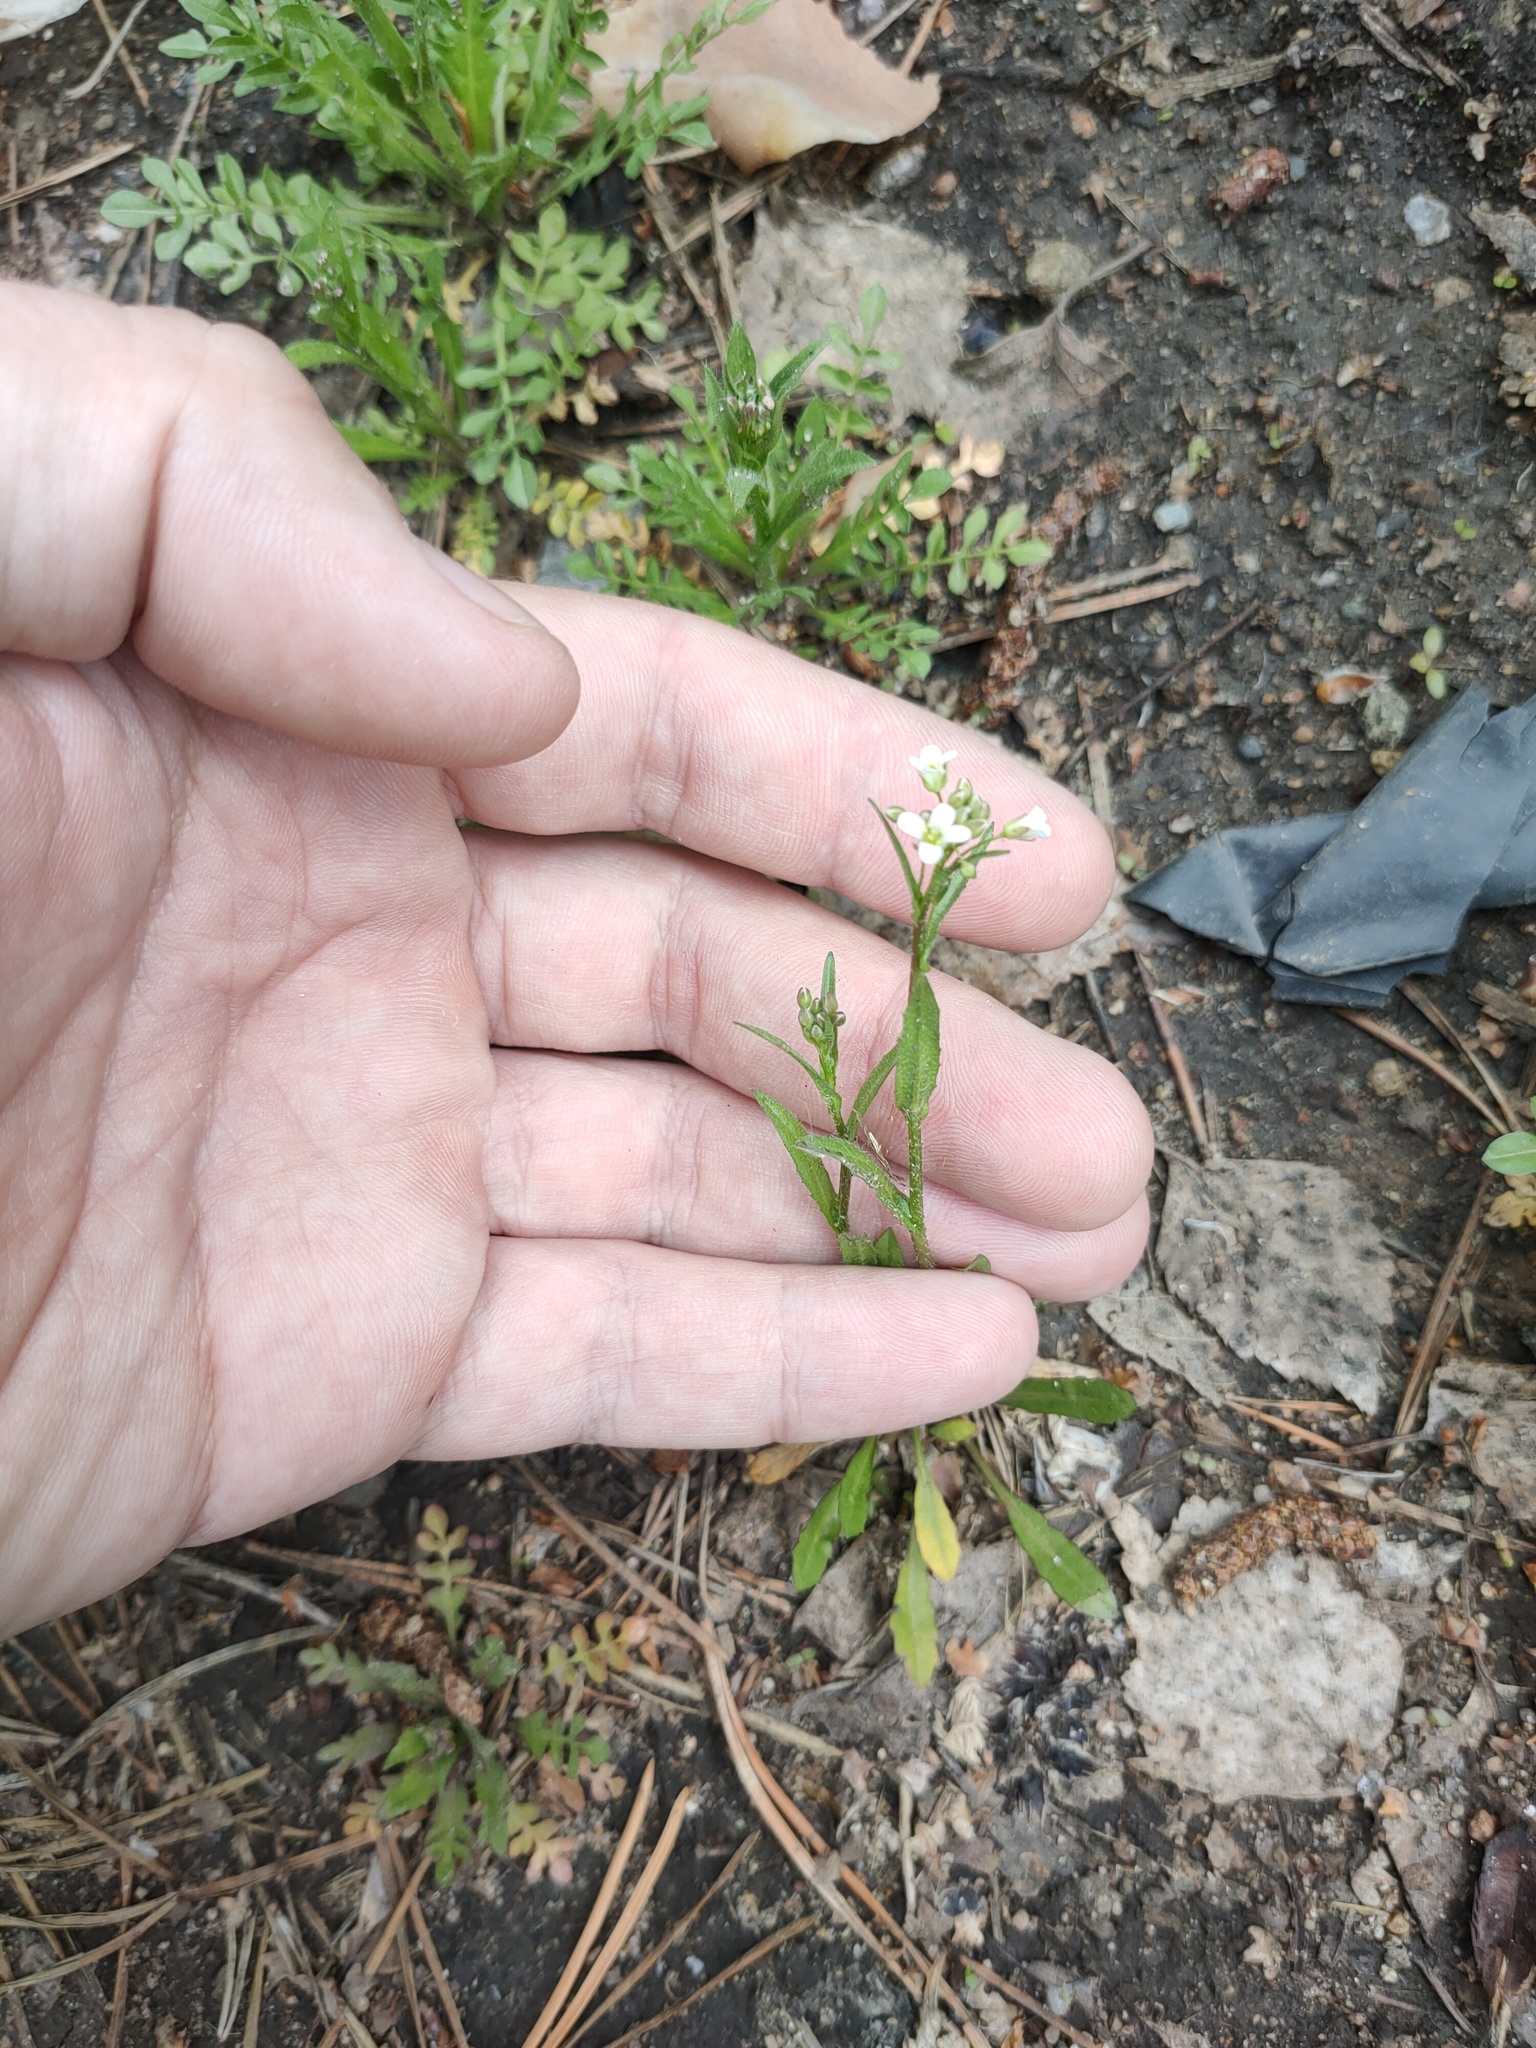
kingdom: Plantae
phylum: Tracheophyta
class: Magnoliopsida
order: Brassicales
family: Brassicaceae
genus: Capsella
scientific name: Capsella bursa-pastoris
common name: Shepherd's purse
